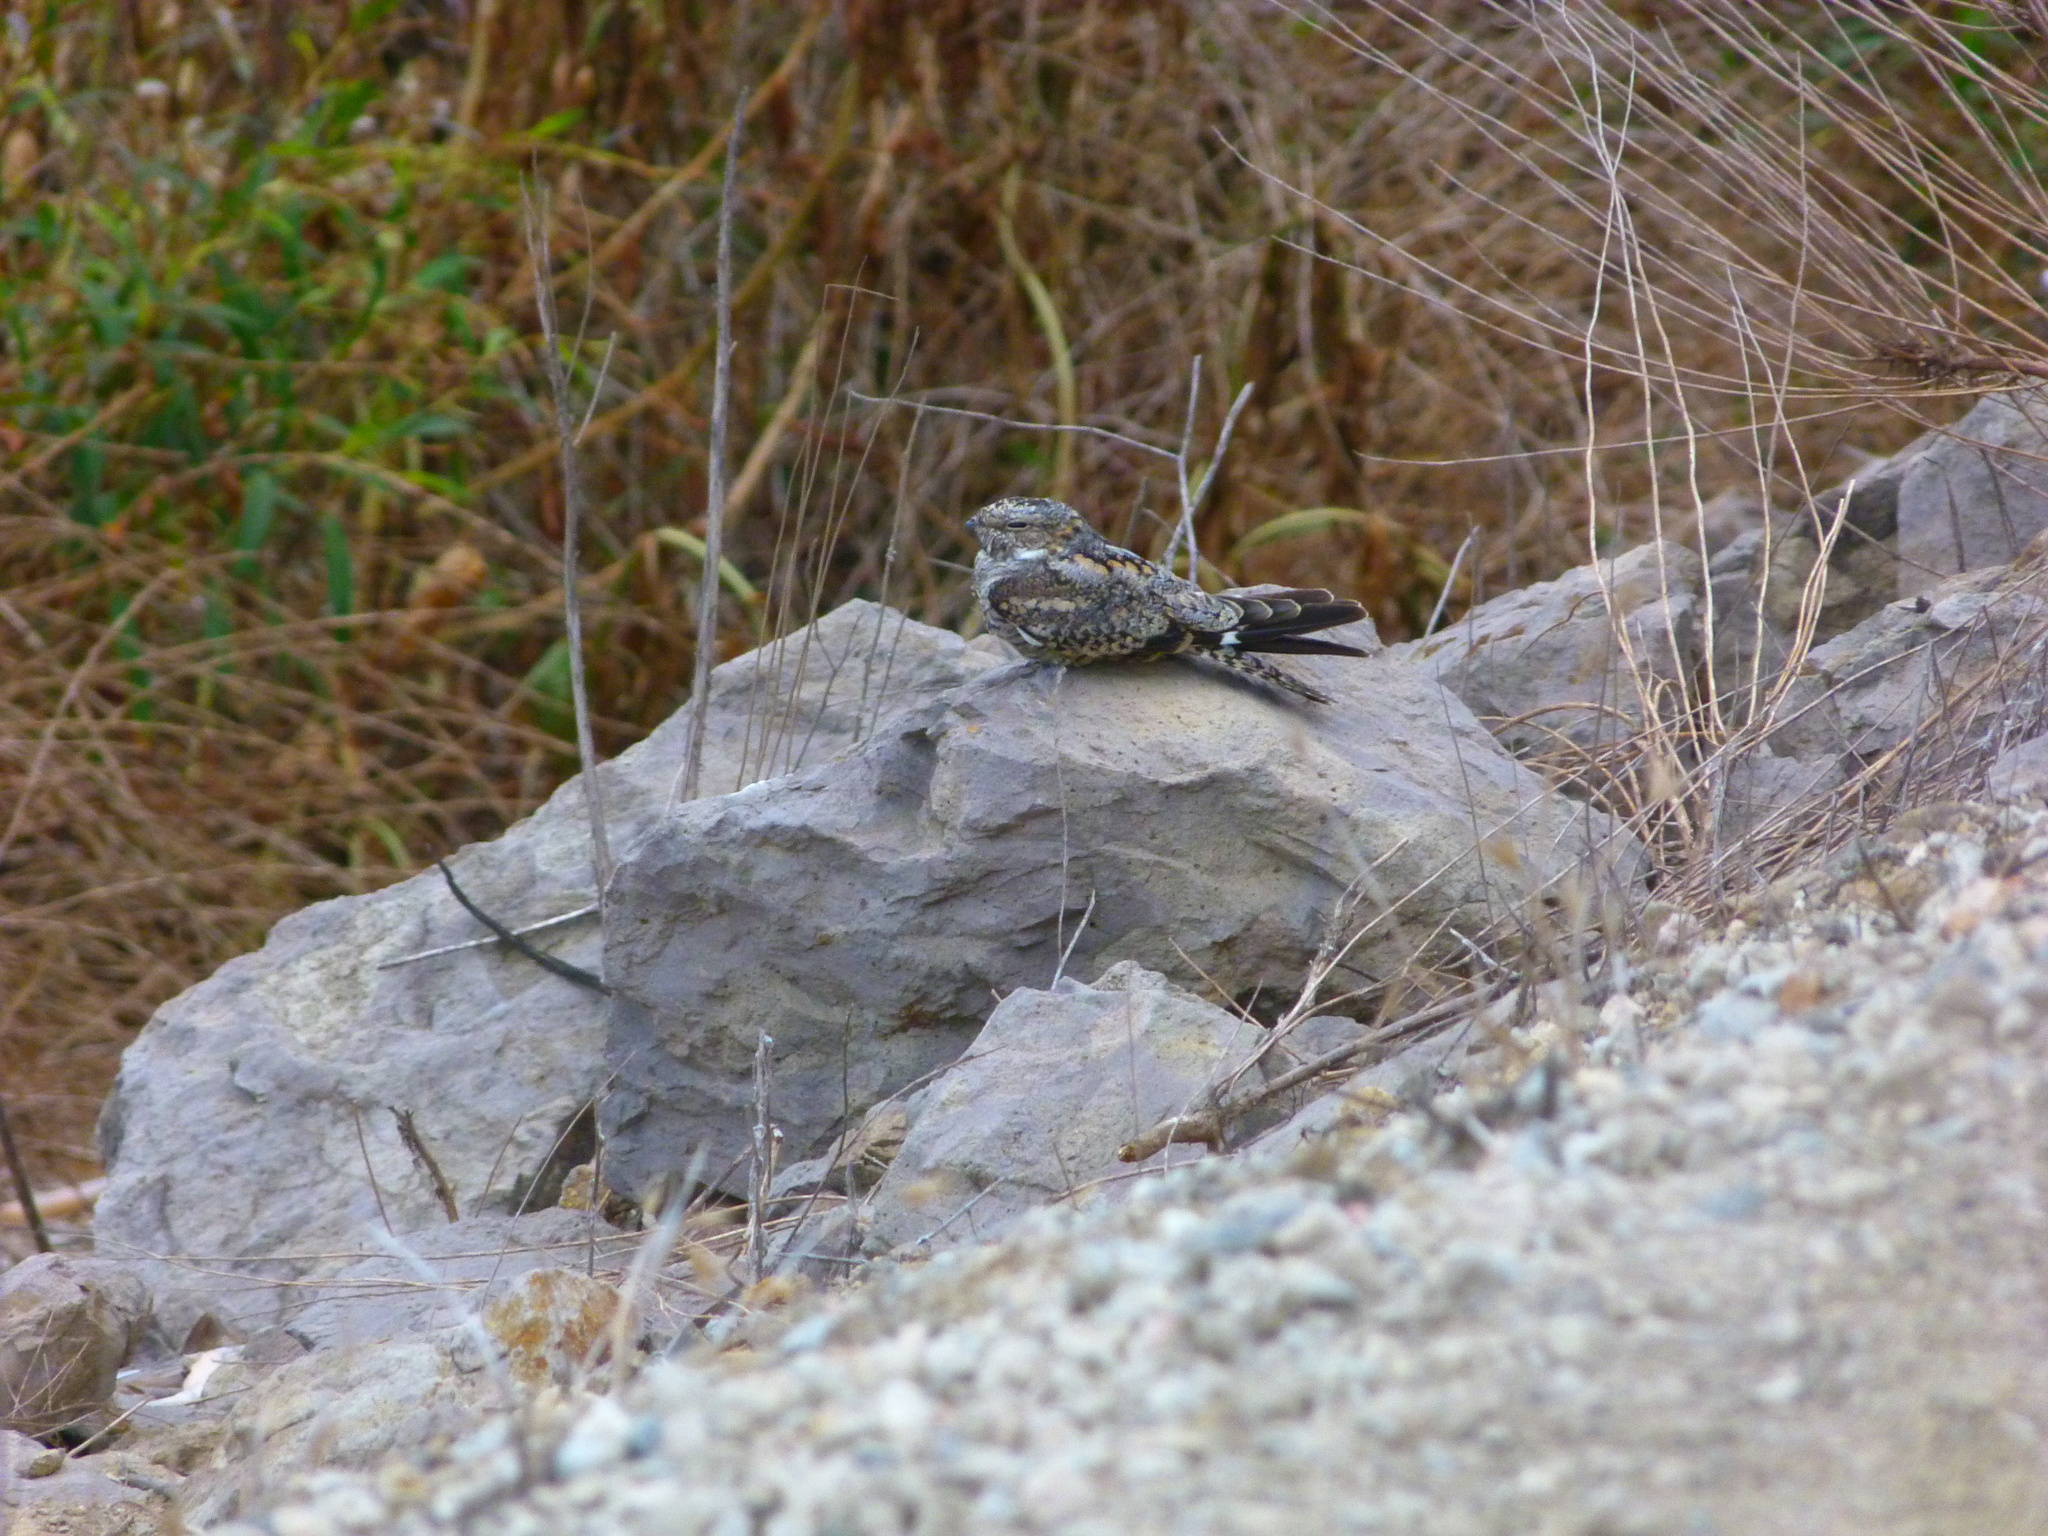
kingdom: Animalia
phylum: Chordata
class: Aves
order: Caprimulgiformes
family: Caprimulgidae
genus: Chordeiles
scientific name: Chordeiles acutipennis
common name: Lesser nighthawk
